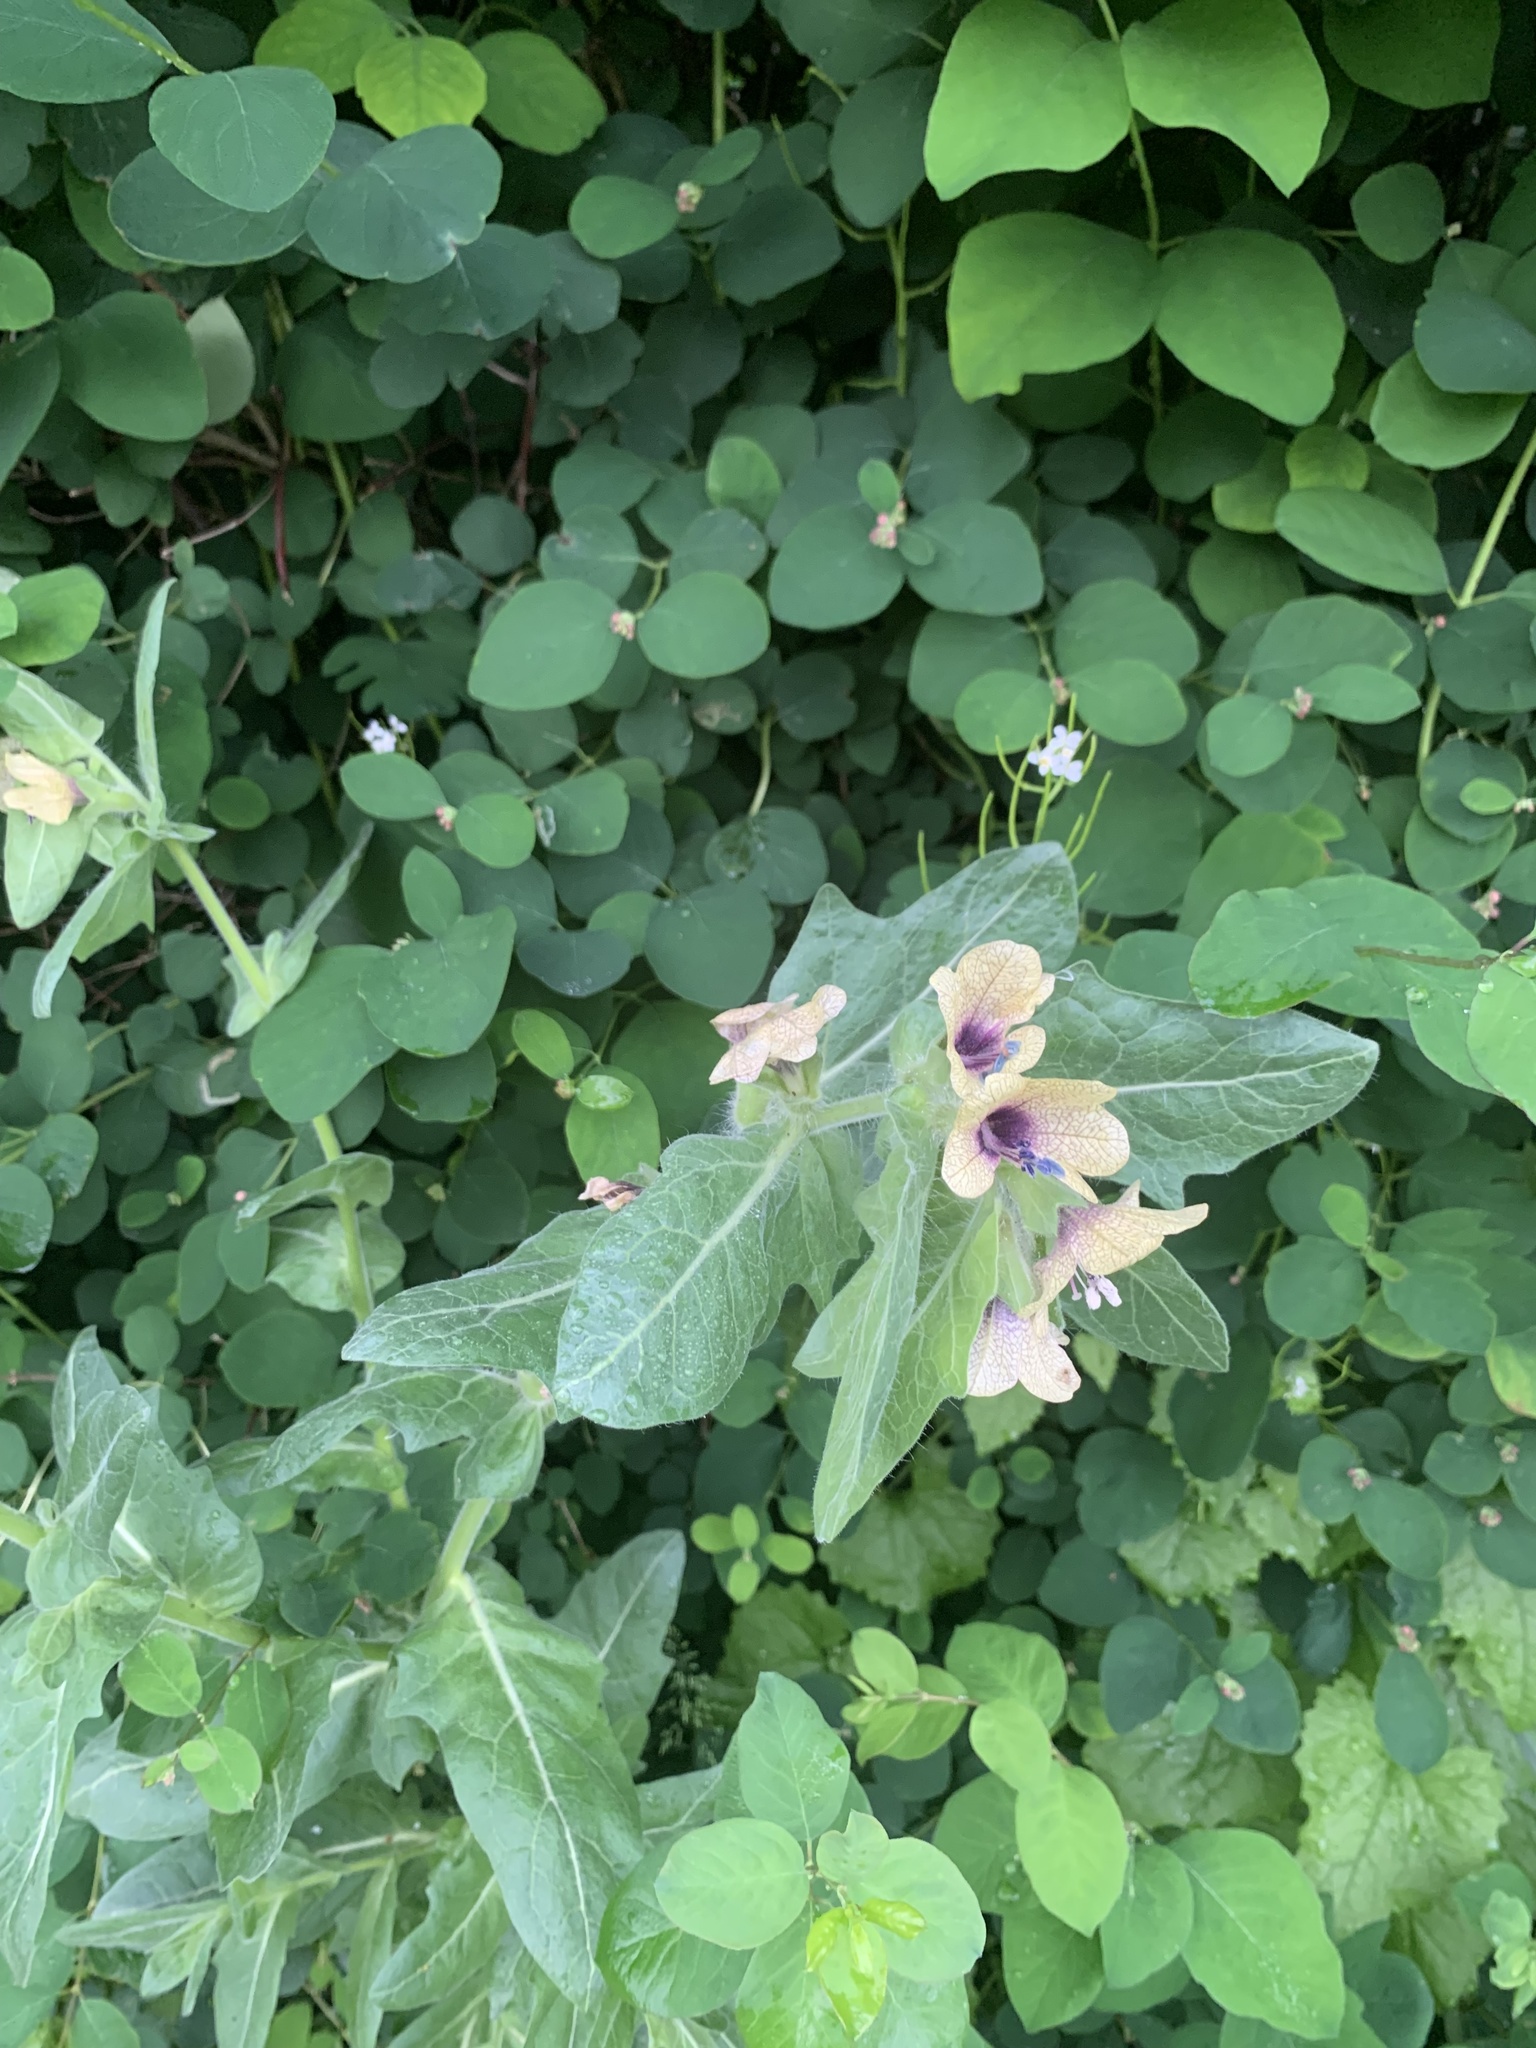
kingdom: Plantae
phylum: Tracheophyta
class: Magnoliopsida
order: Solanales
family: Solanaceae
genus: Hyoscyamus
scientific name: Hyoscyamus niger
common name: Henbane
